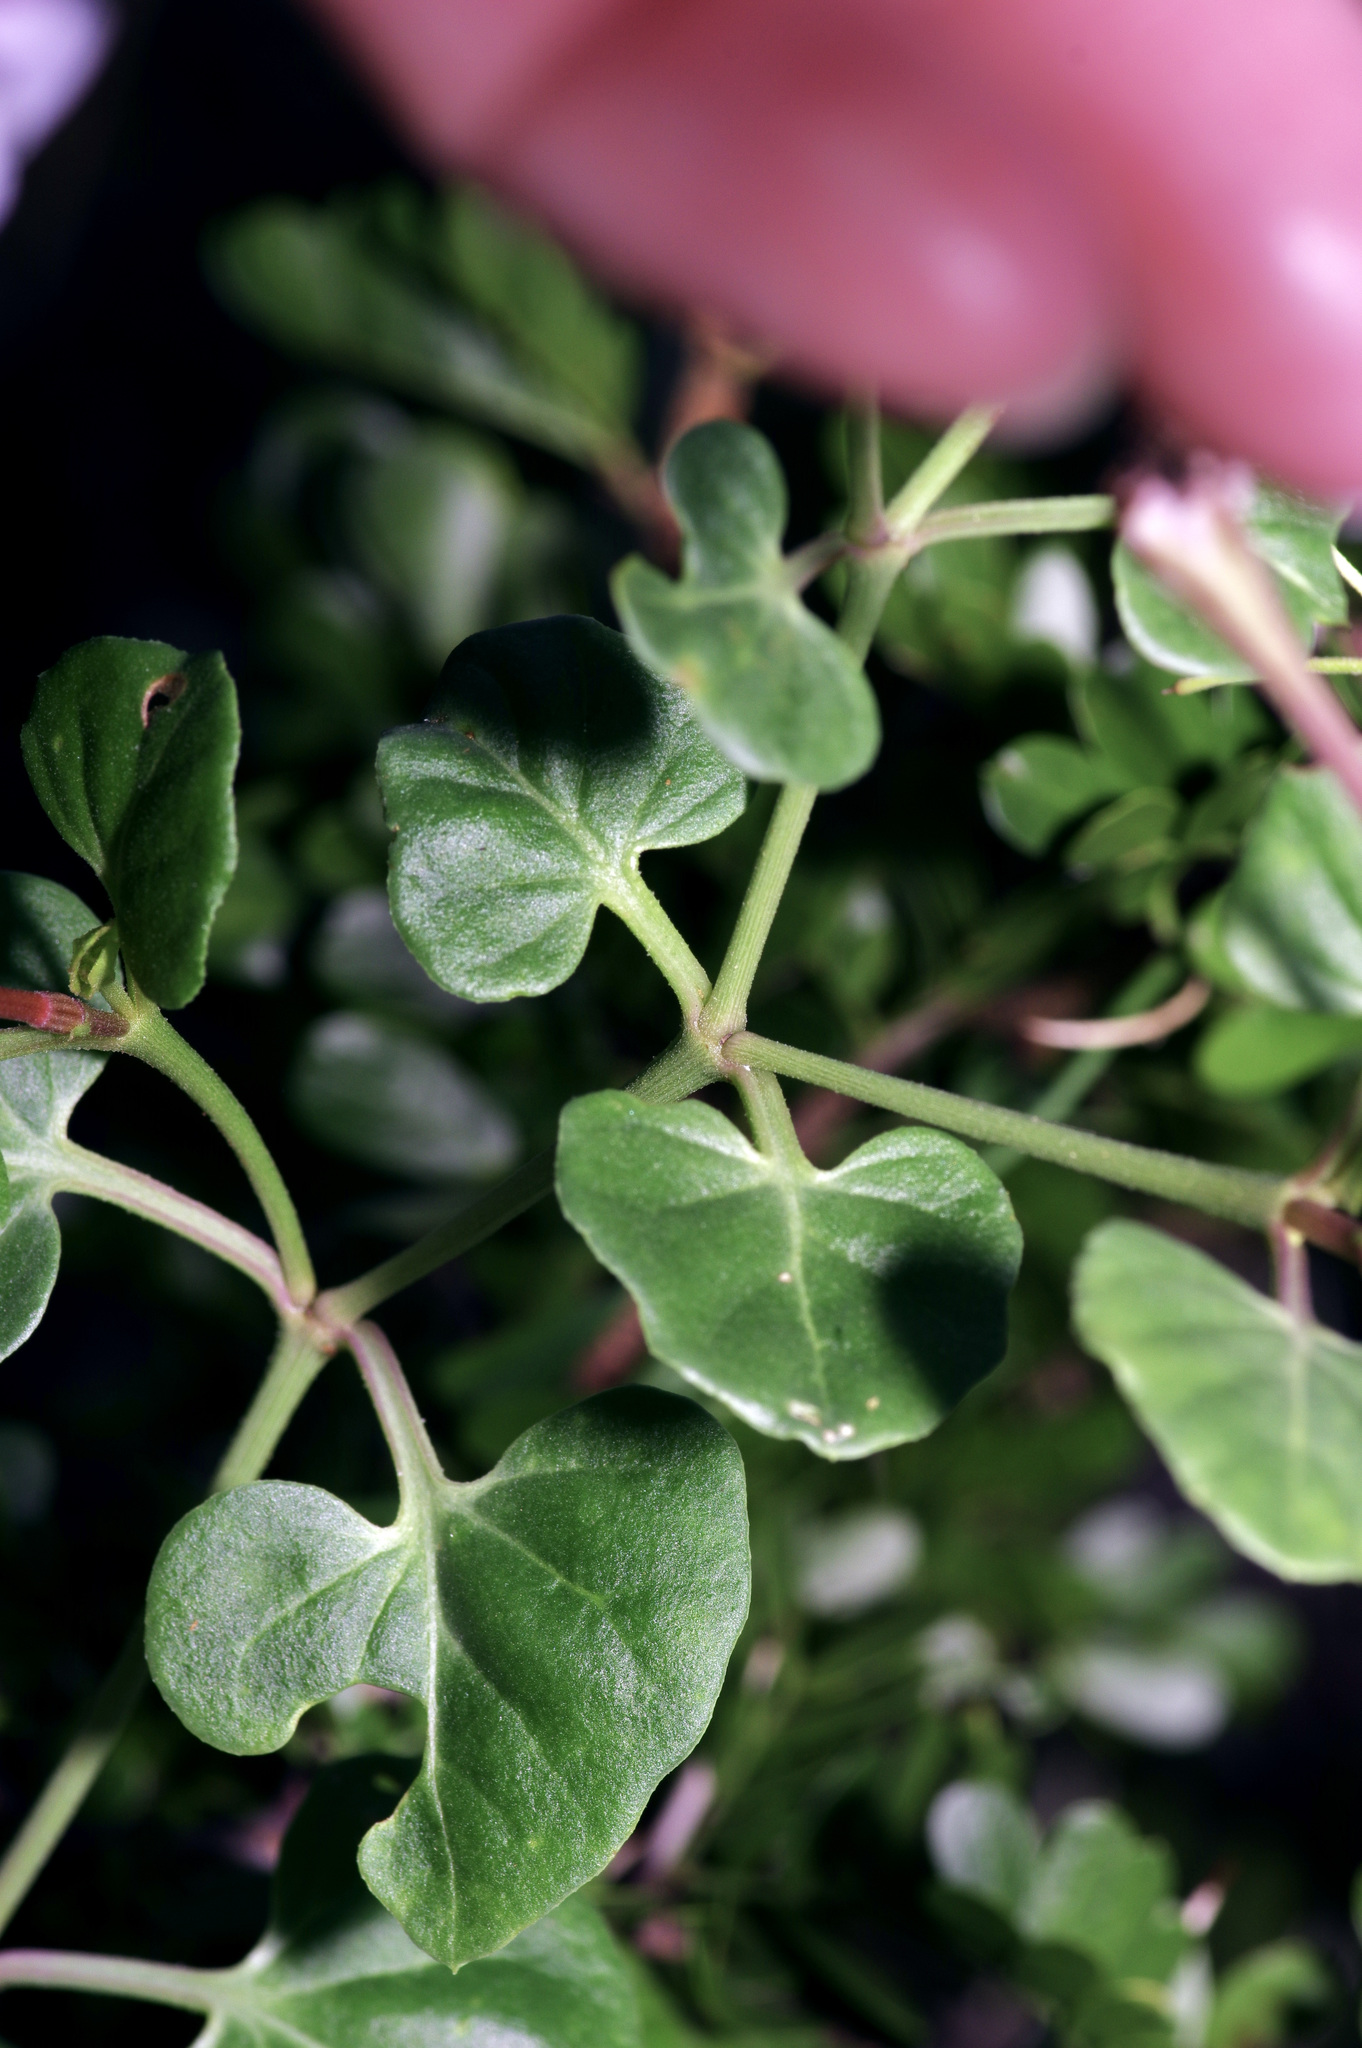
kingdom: Plantae
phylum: Tracheophyta
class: Magnoliopsida
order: Caryophyllales
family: Nyctaginaceae
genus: Acleisanthes
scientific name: Acleisanthes obtusa
